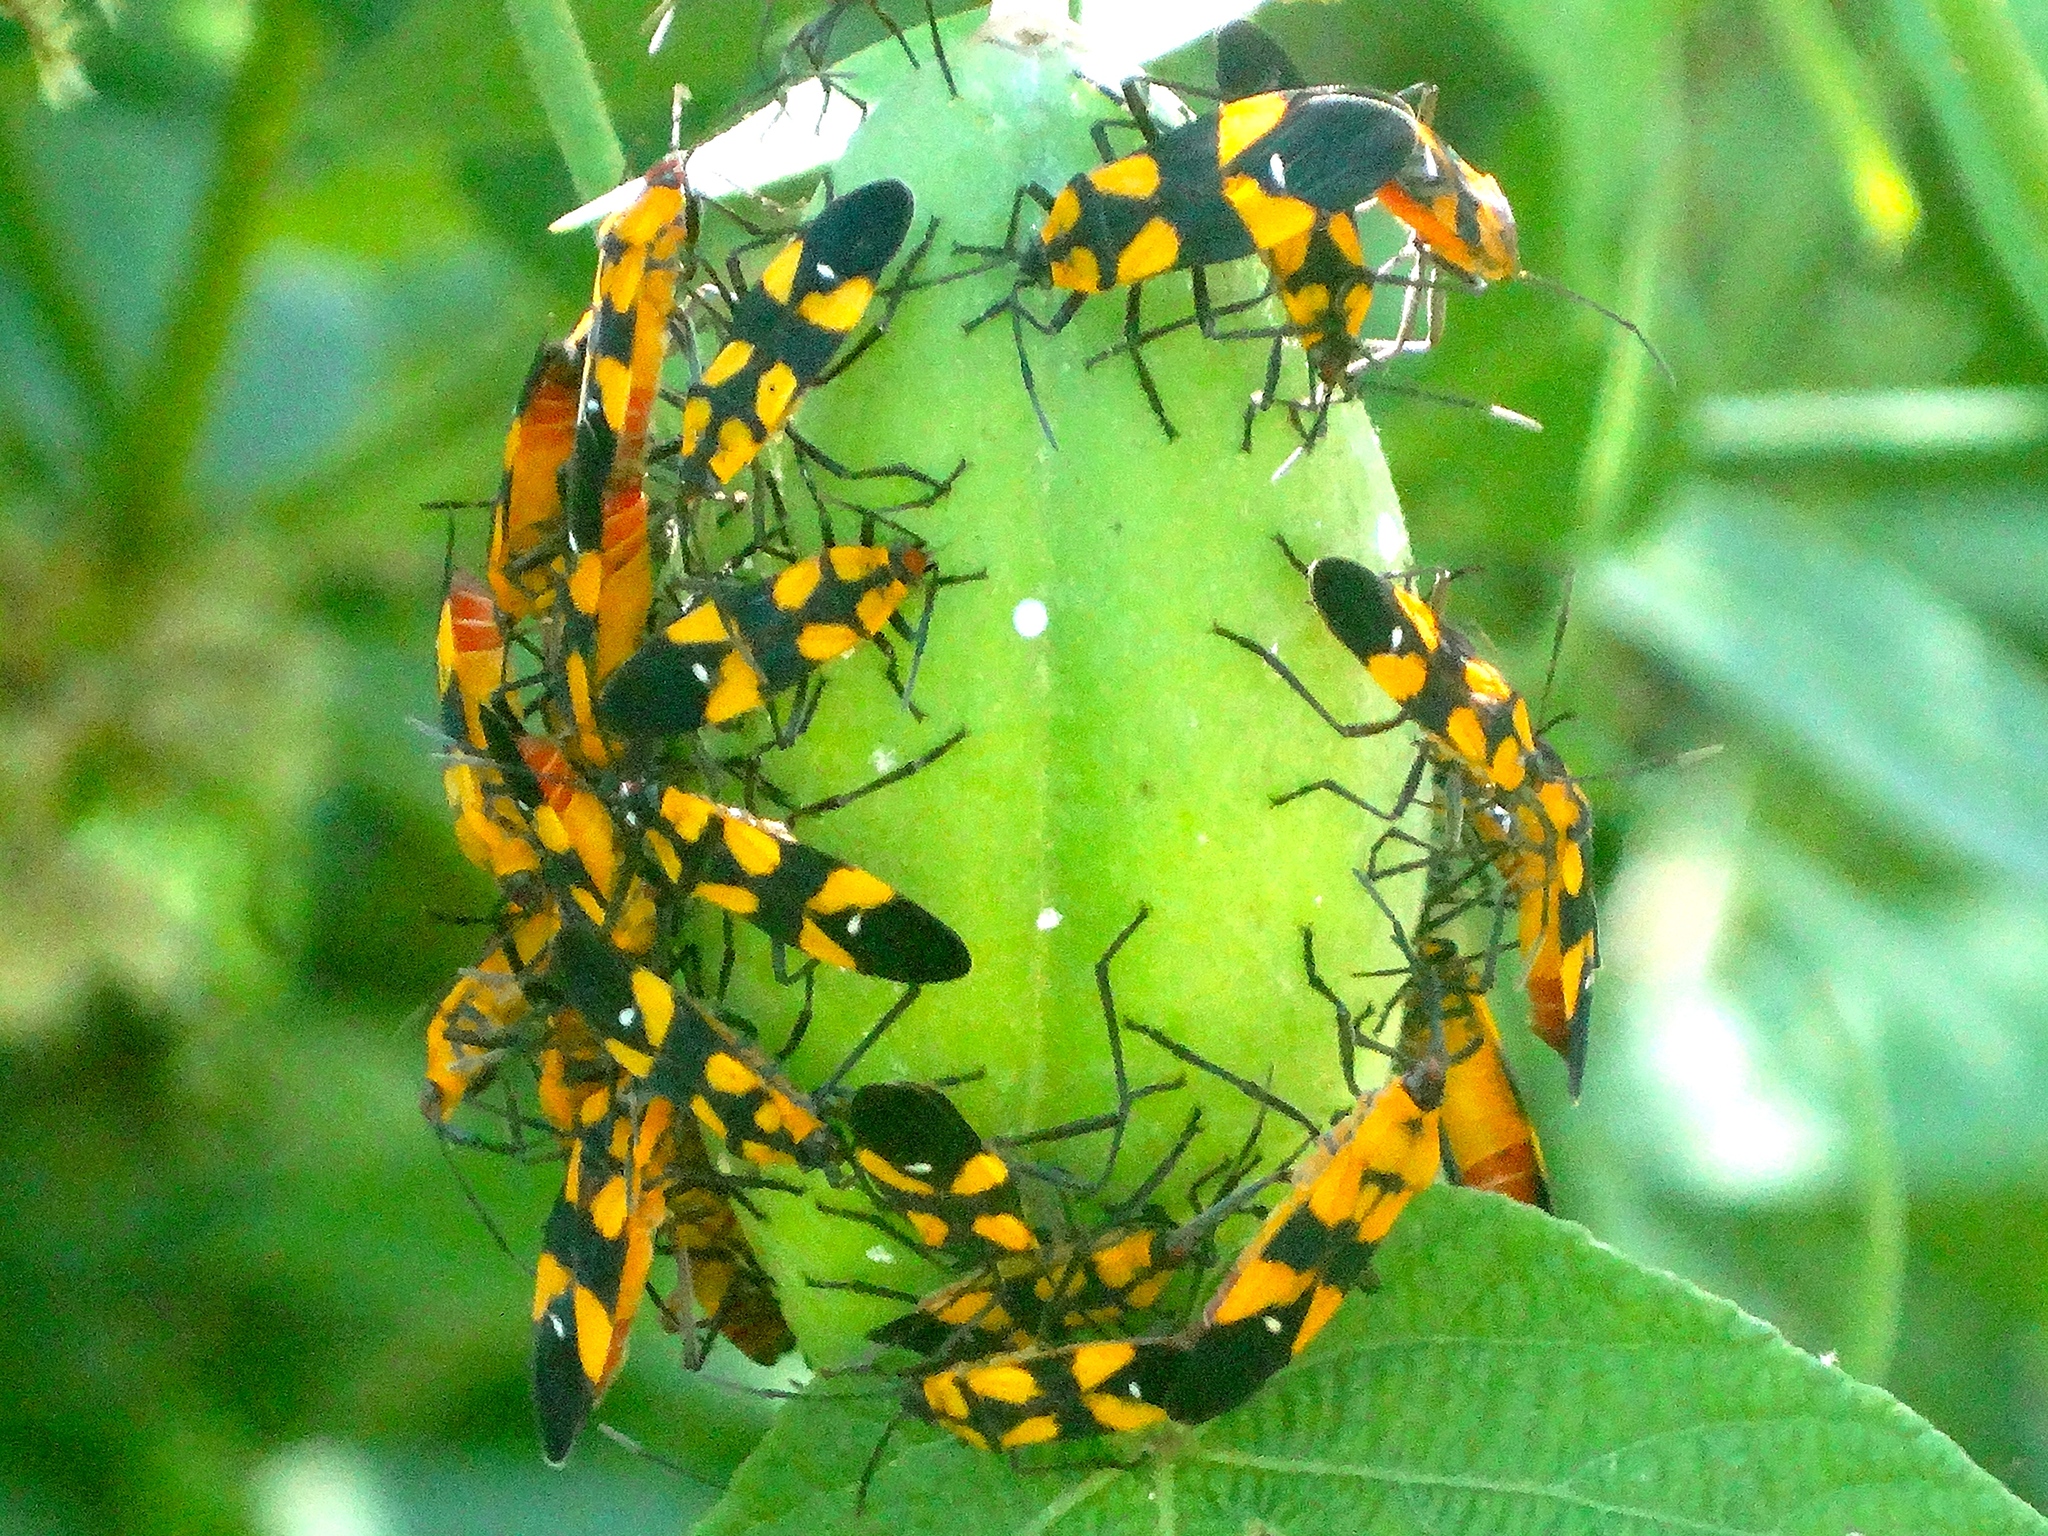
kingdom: Animalia
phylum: Arthropoda
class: Insecta
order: Hemiptera
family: Lygaeidae
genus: Oncopeltus
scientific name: Oncopeltus sexmaculatus
